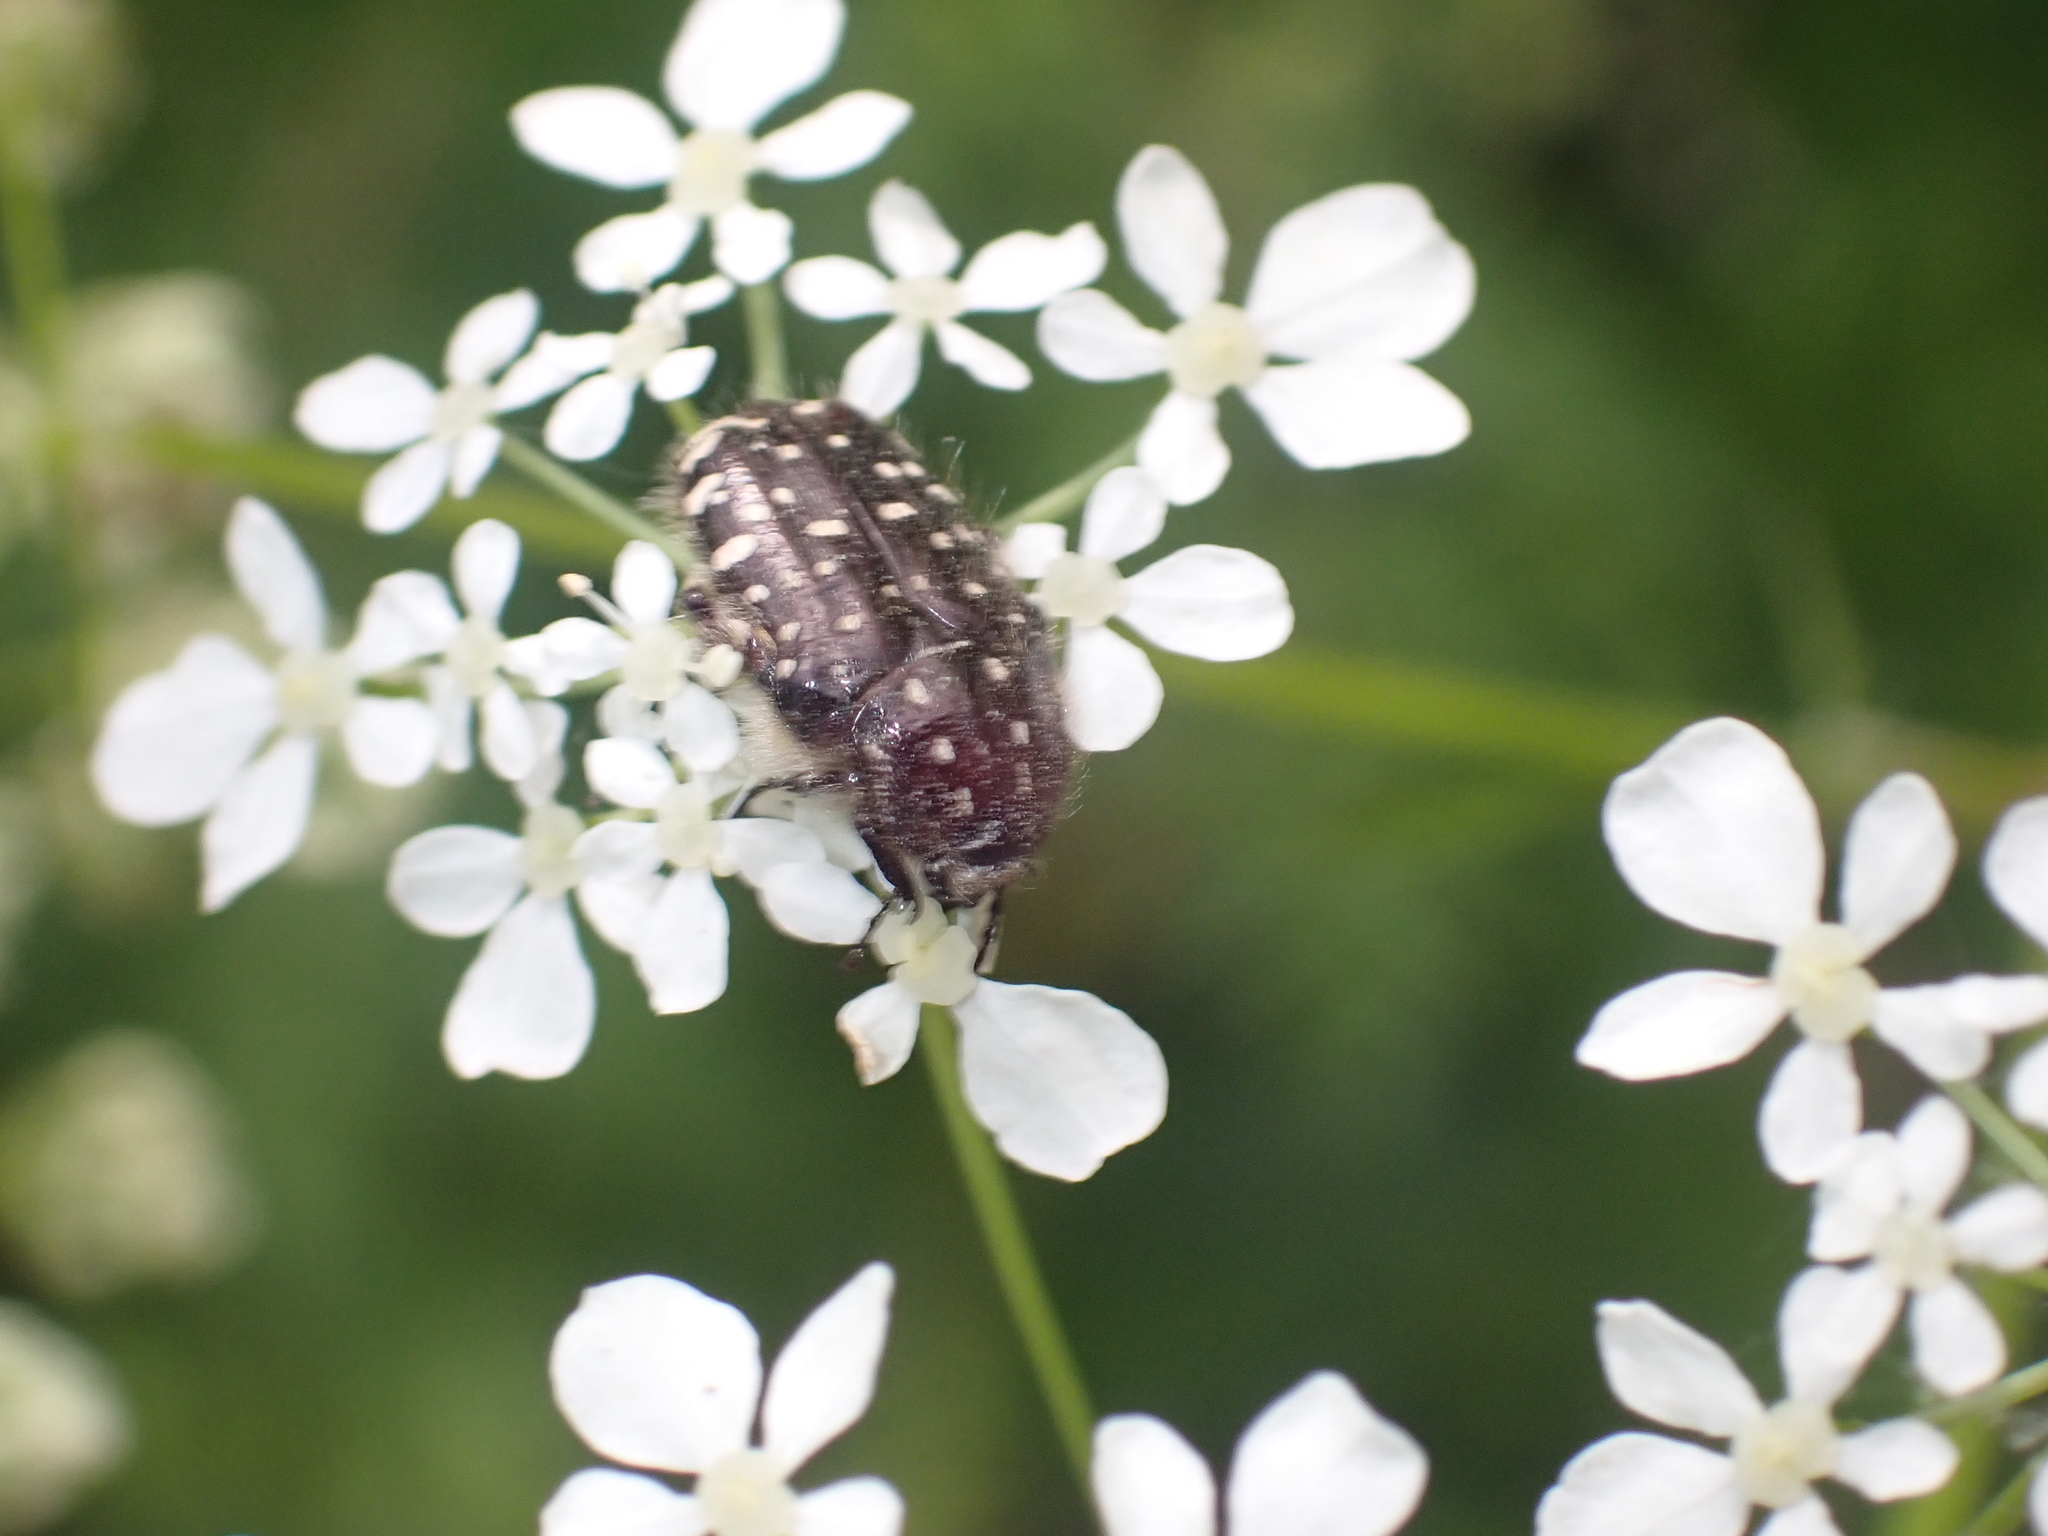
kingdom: Animalia
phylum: Arthropoda
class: Insecta
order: Coleoptera
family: Scarabaeidae
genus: Oxythyrea
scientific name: Oxythyrea funesta
